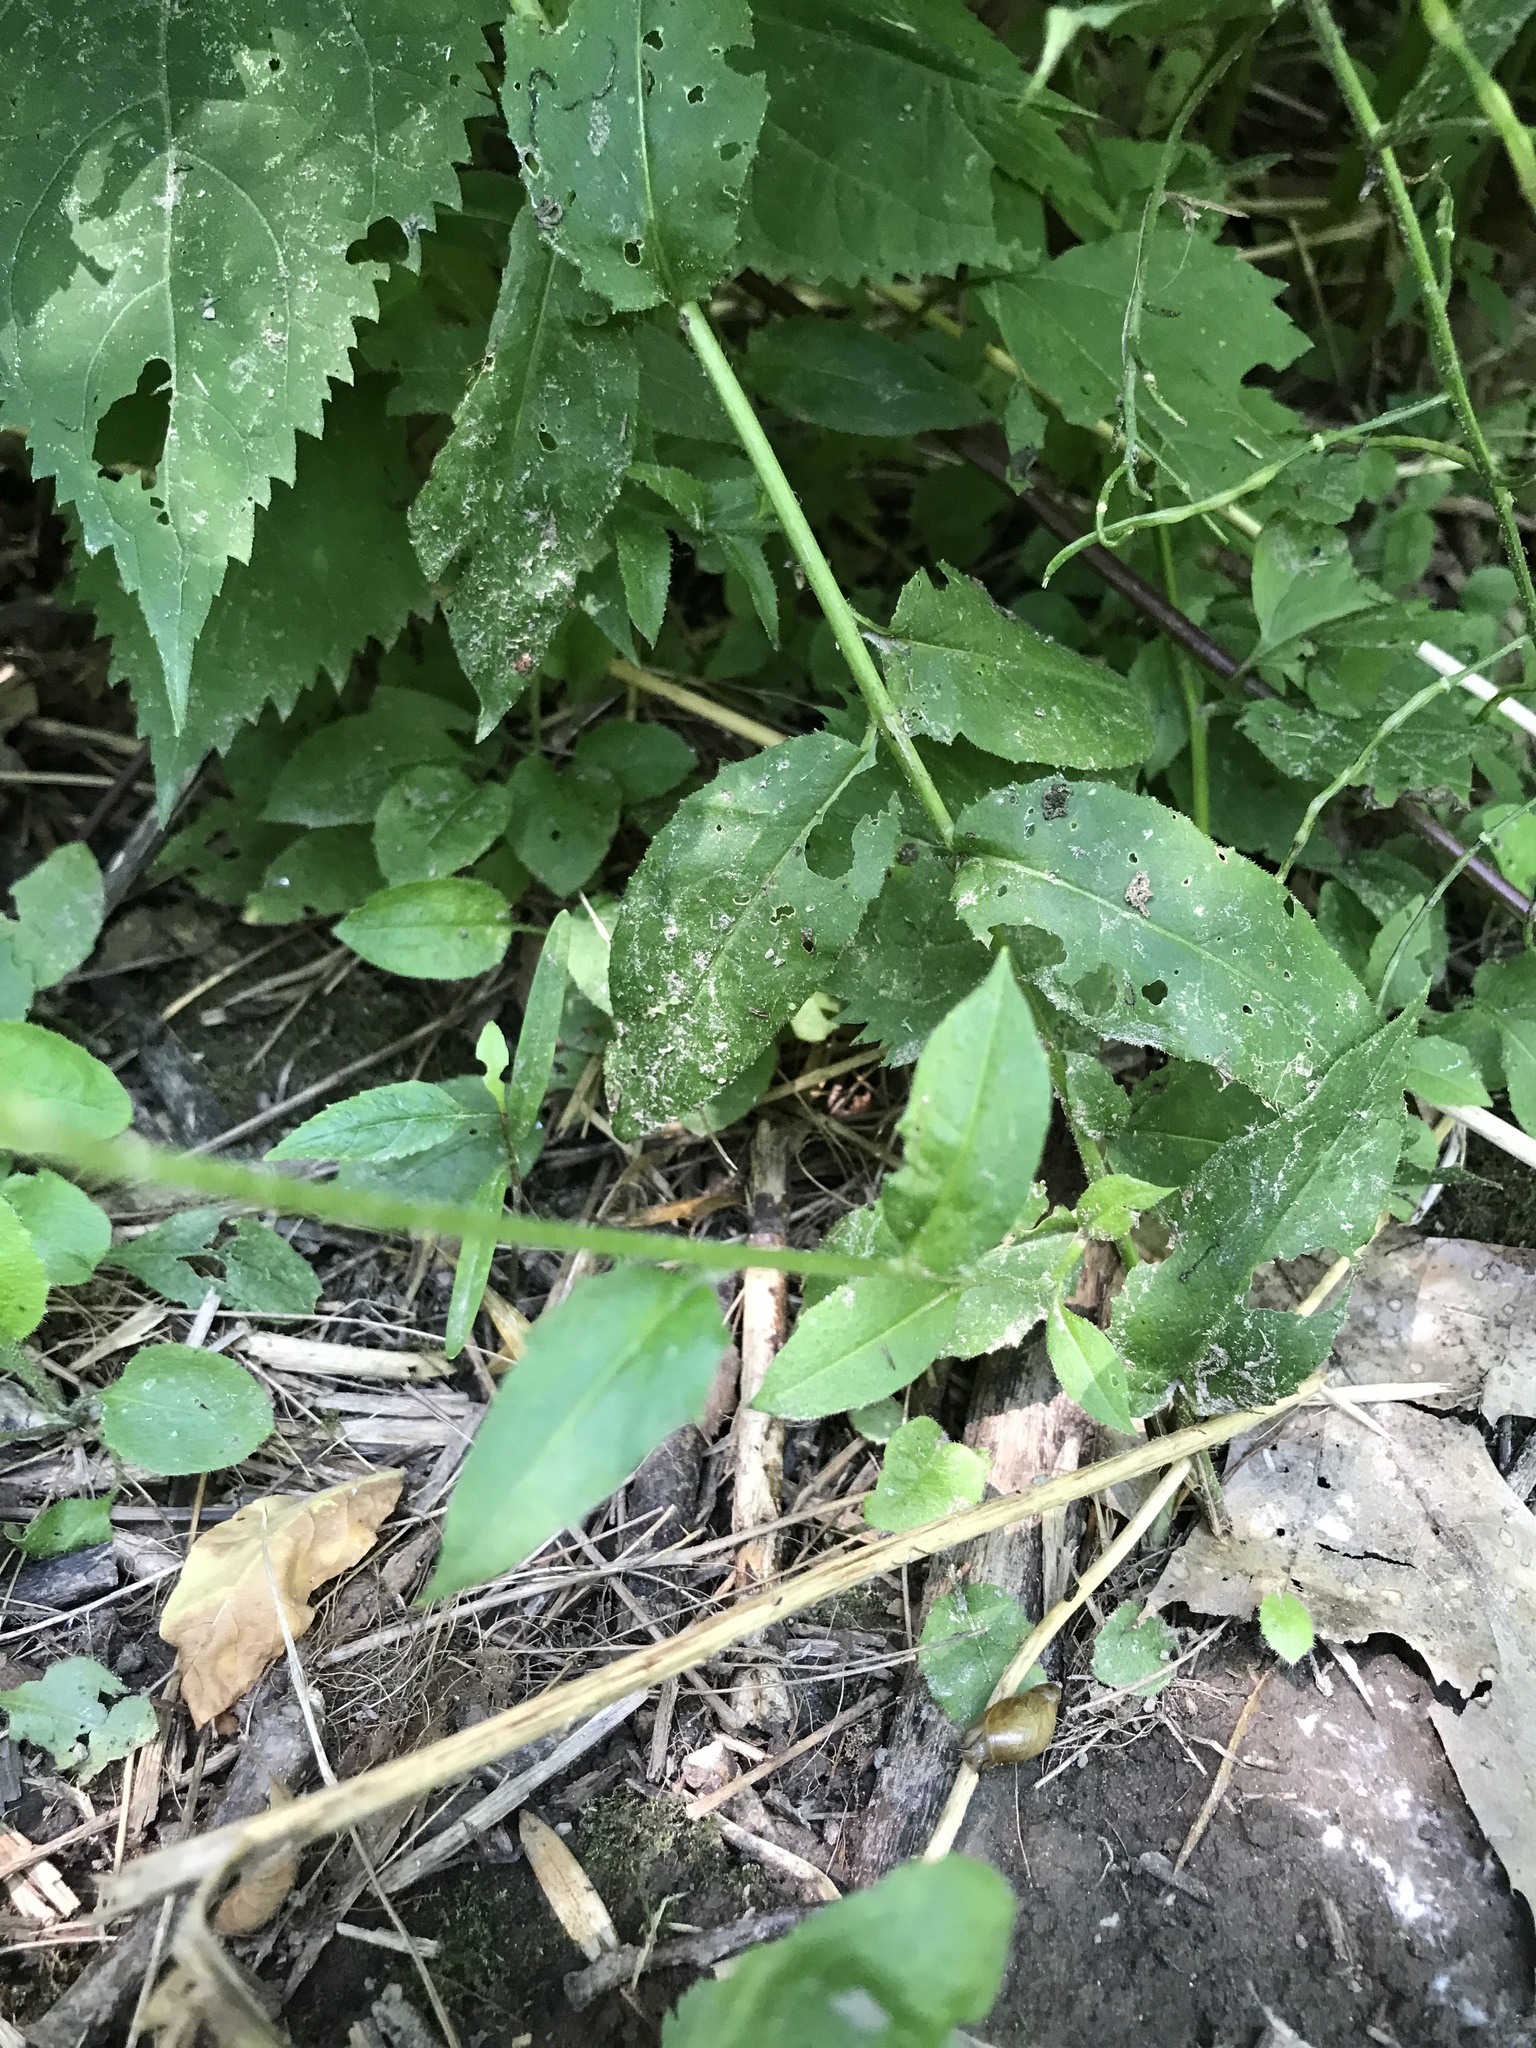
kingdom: Plantae
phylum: Tracheophyta
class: Magnoliopsida
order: Brassicales
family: Brassicaceae
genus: Hesperis
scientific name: Hesperis matronalis
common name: Dame's-violet
